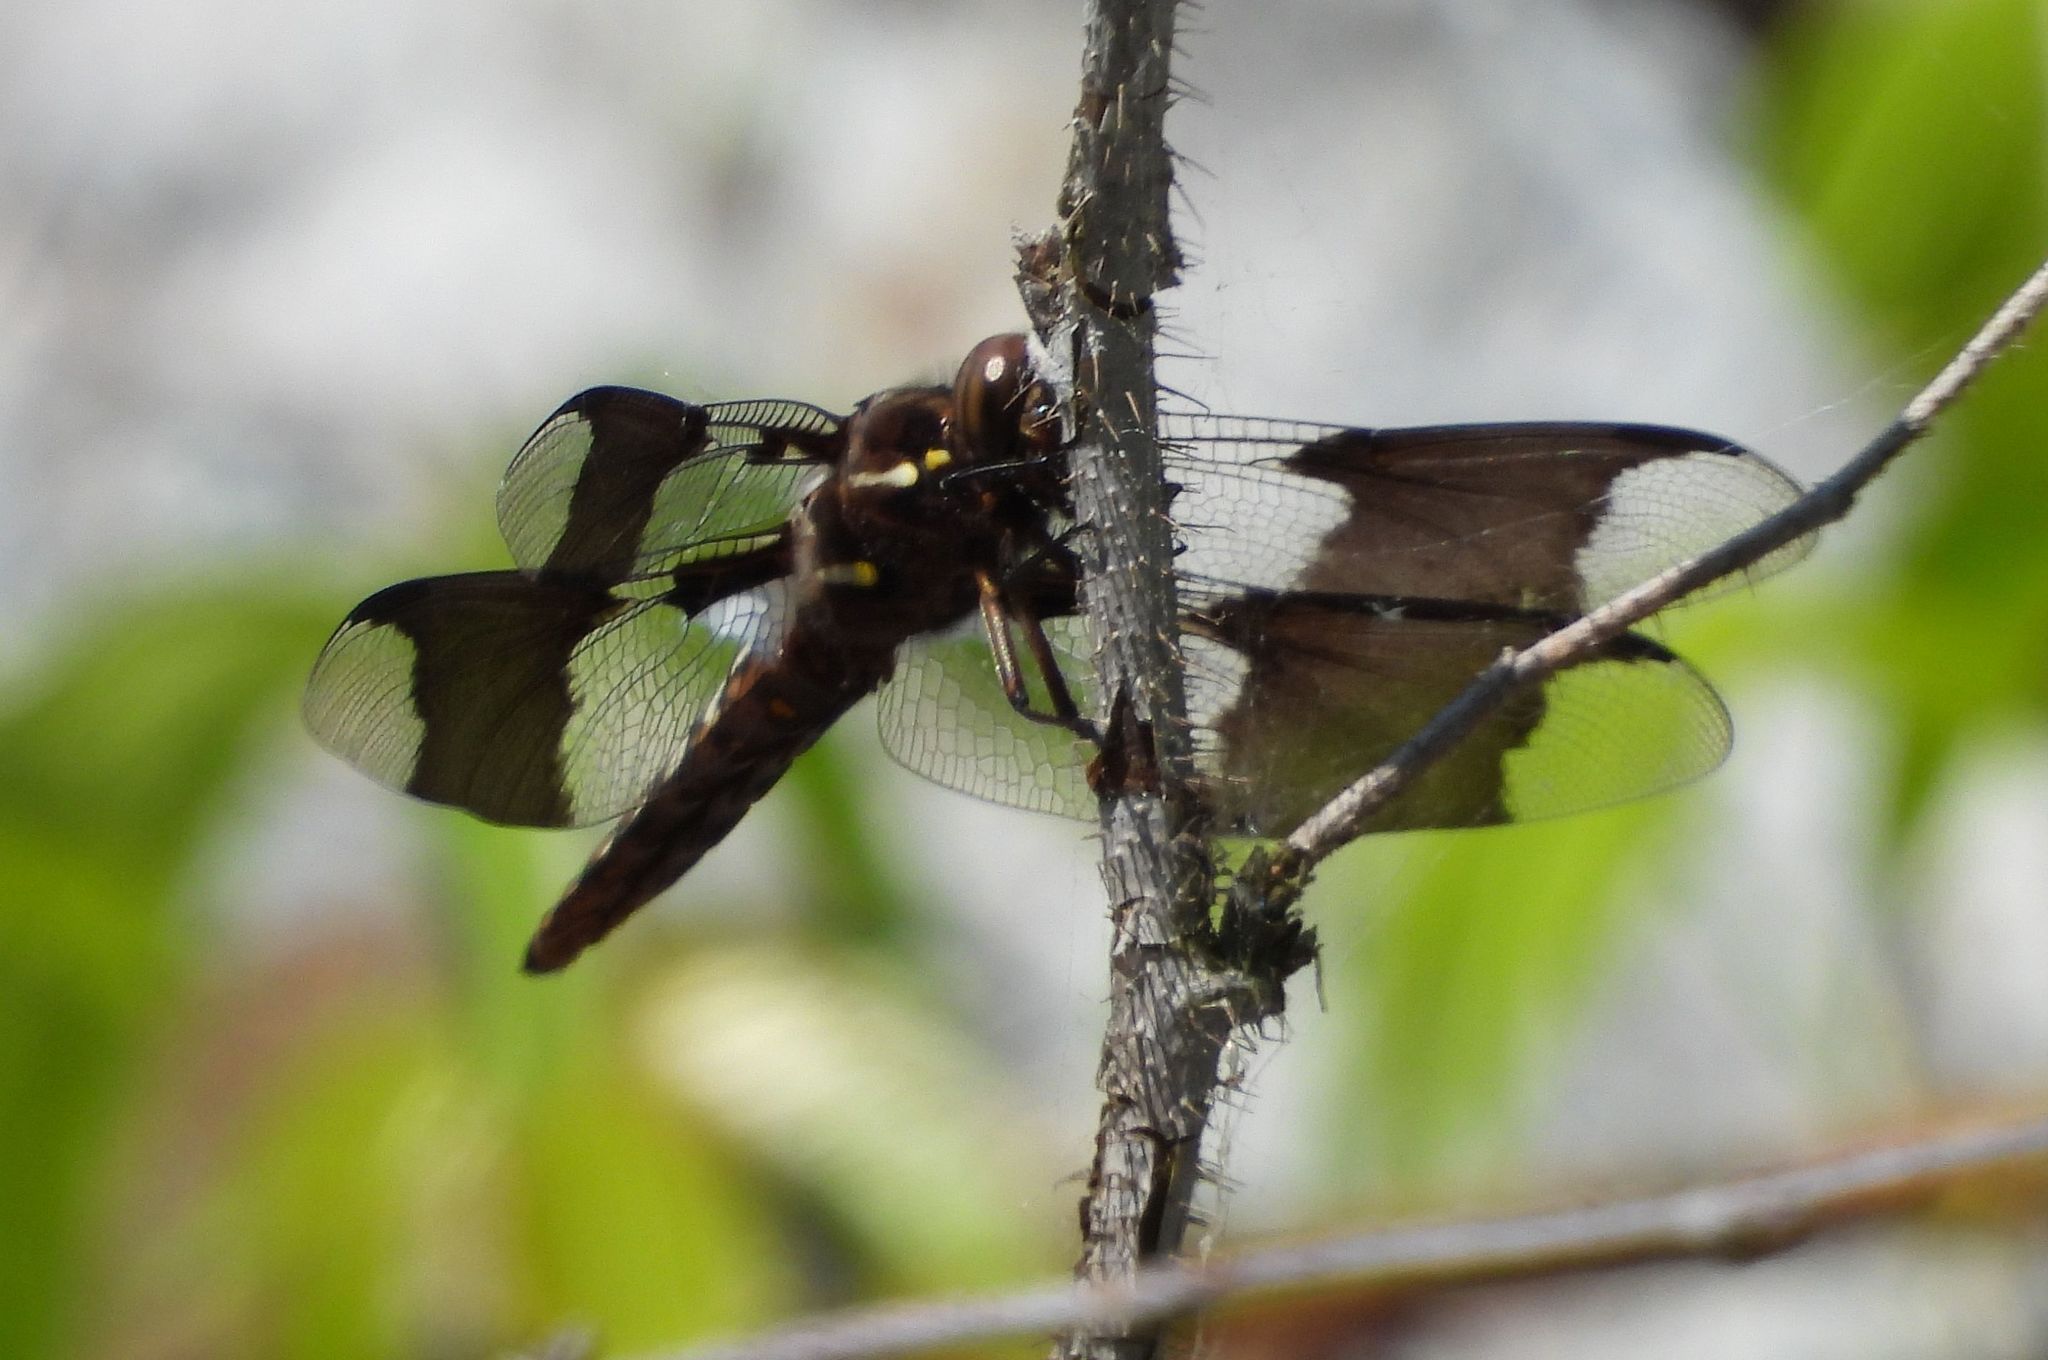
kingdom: Animalia
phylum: Arthropoda
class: Insecta
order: Odonata
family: Libellulidae
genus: Plathemis
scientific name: Plathemis lydia
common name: Common whitetail
